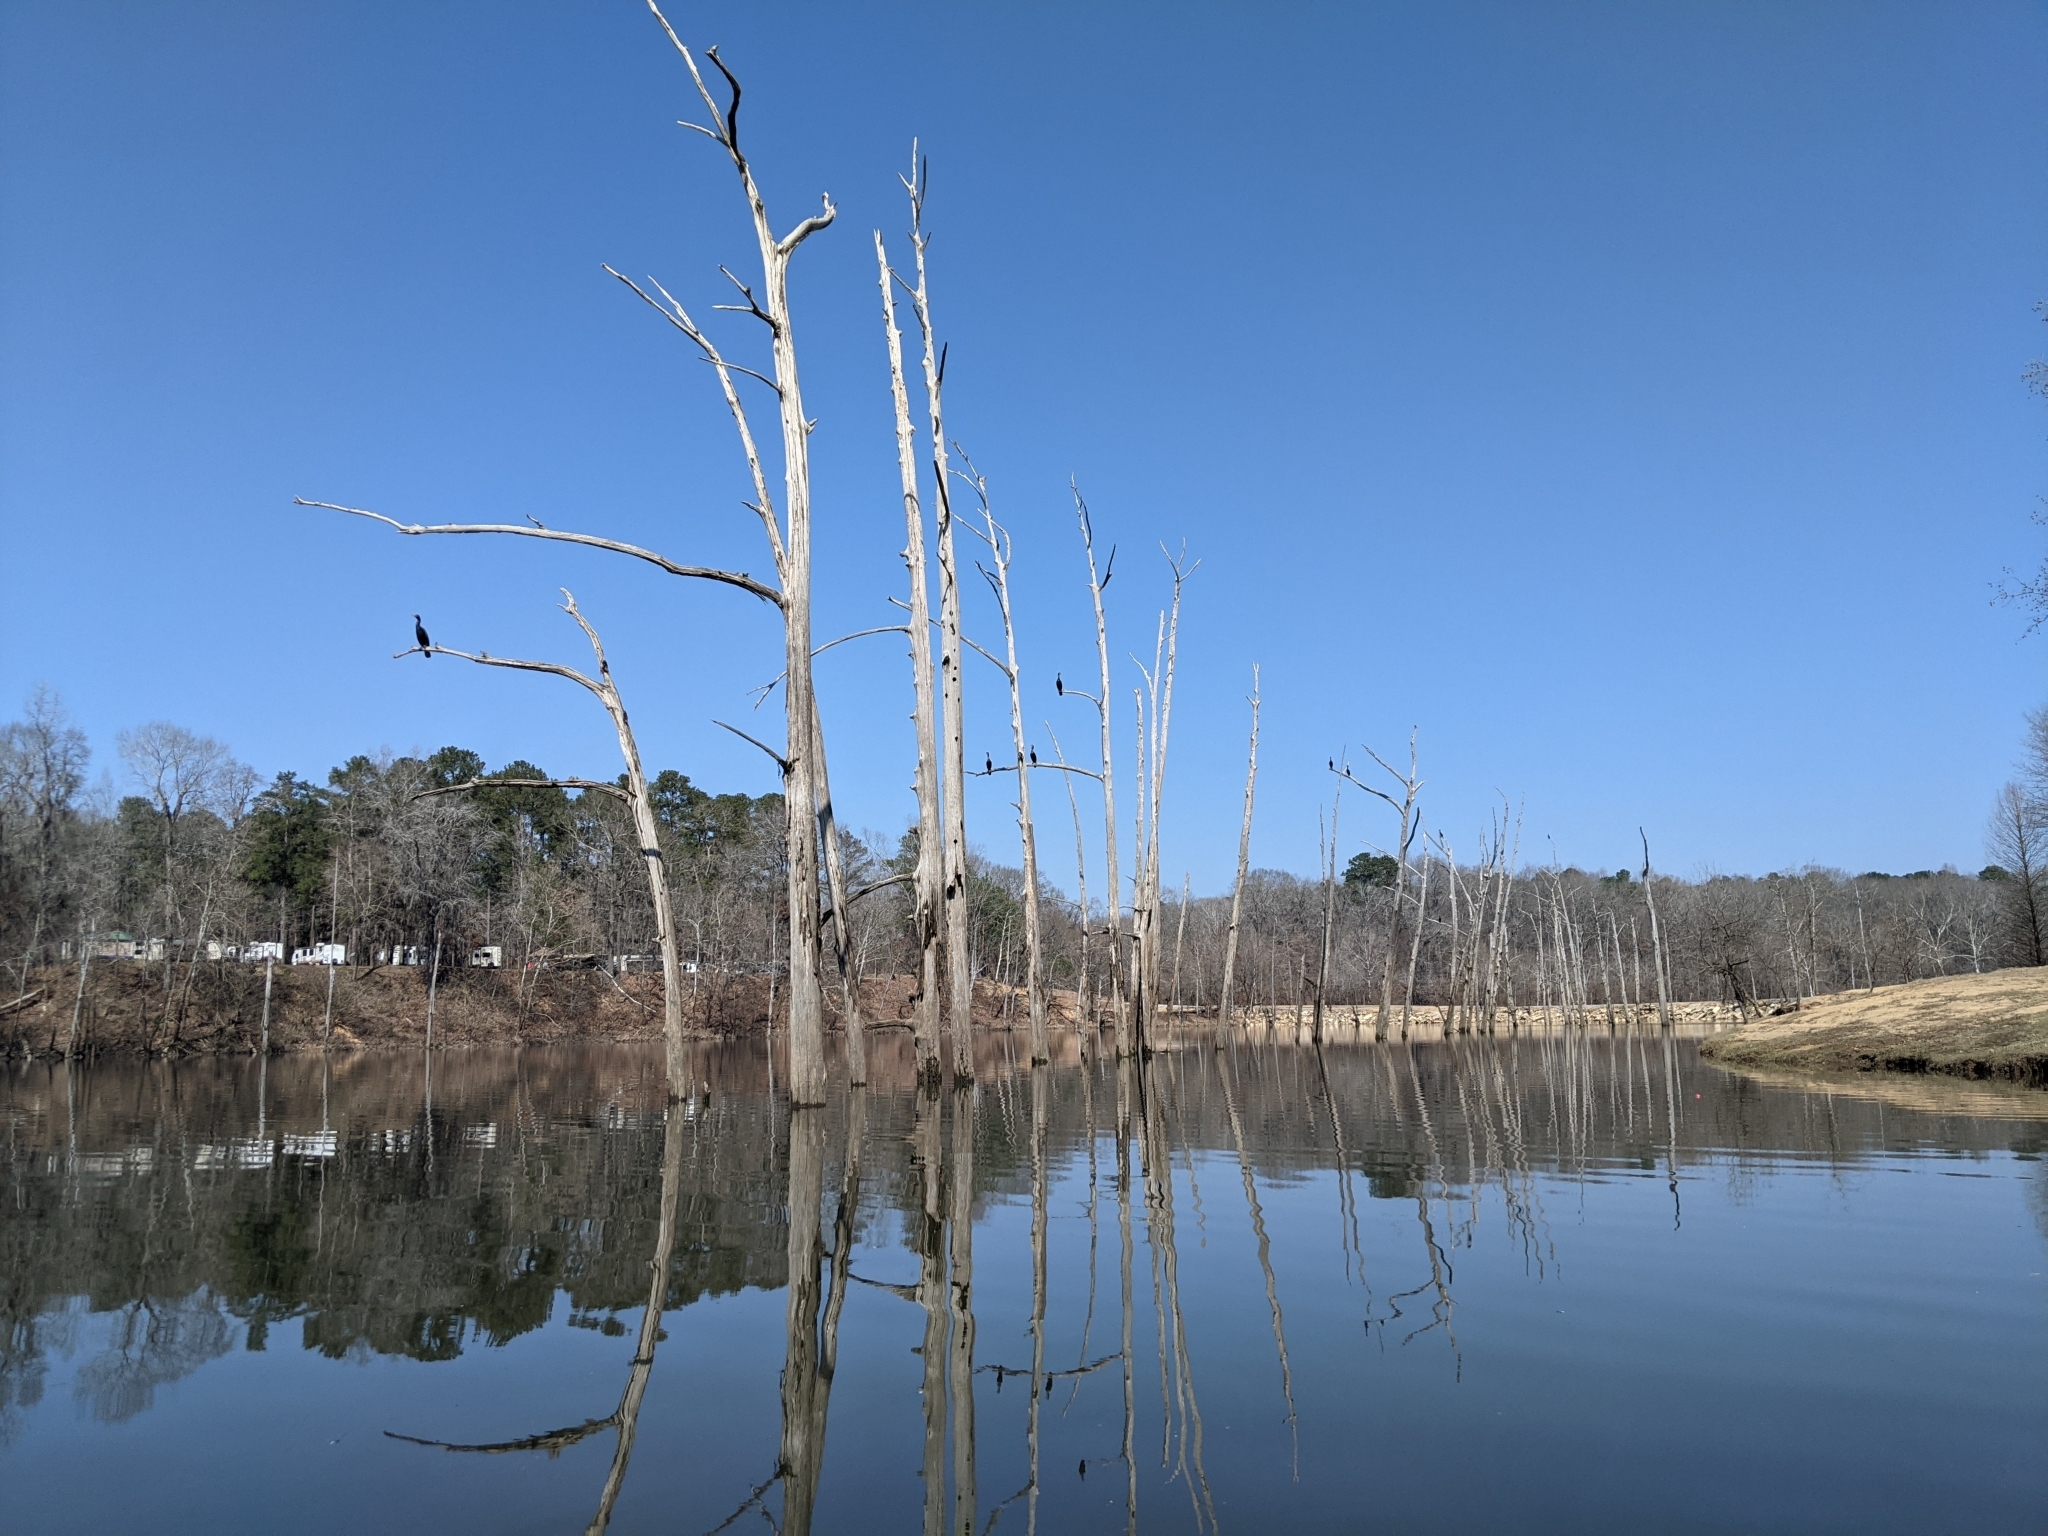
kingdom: Animalia
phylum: Chordata
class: Aves
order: Suliformes
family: Phalacrocoracidae
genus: Phalacrocorax
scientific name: Phalacrocorax auritus
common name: Double-crested cormorant
